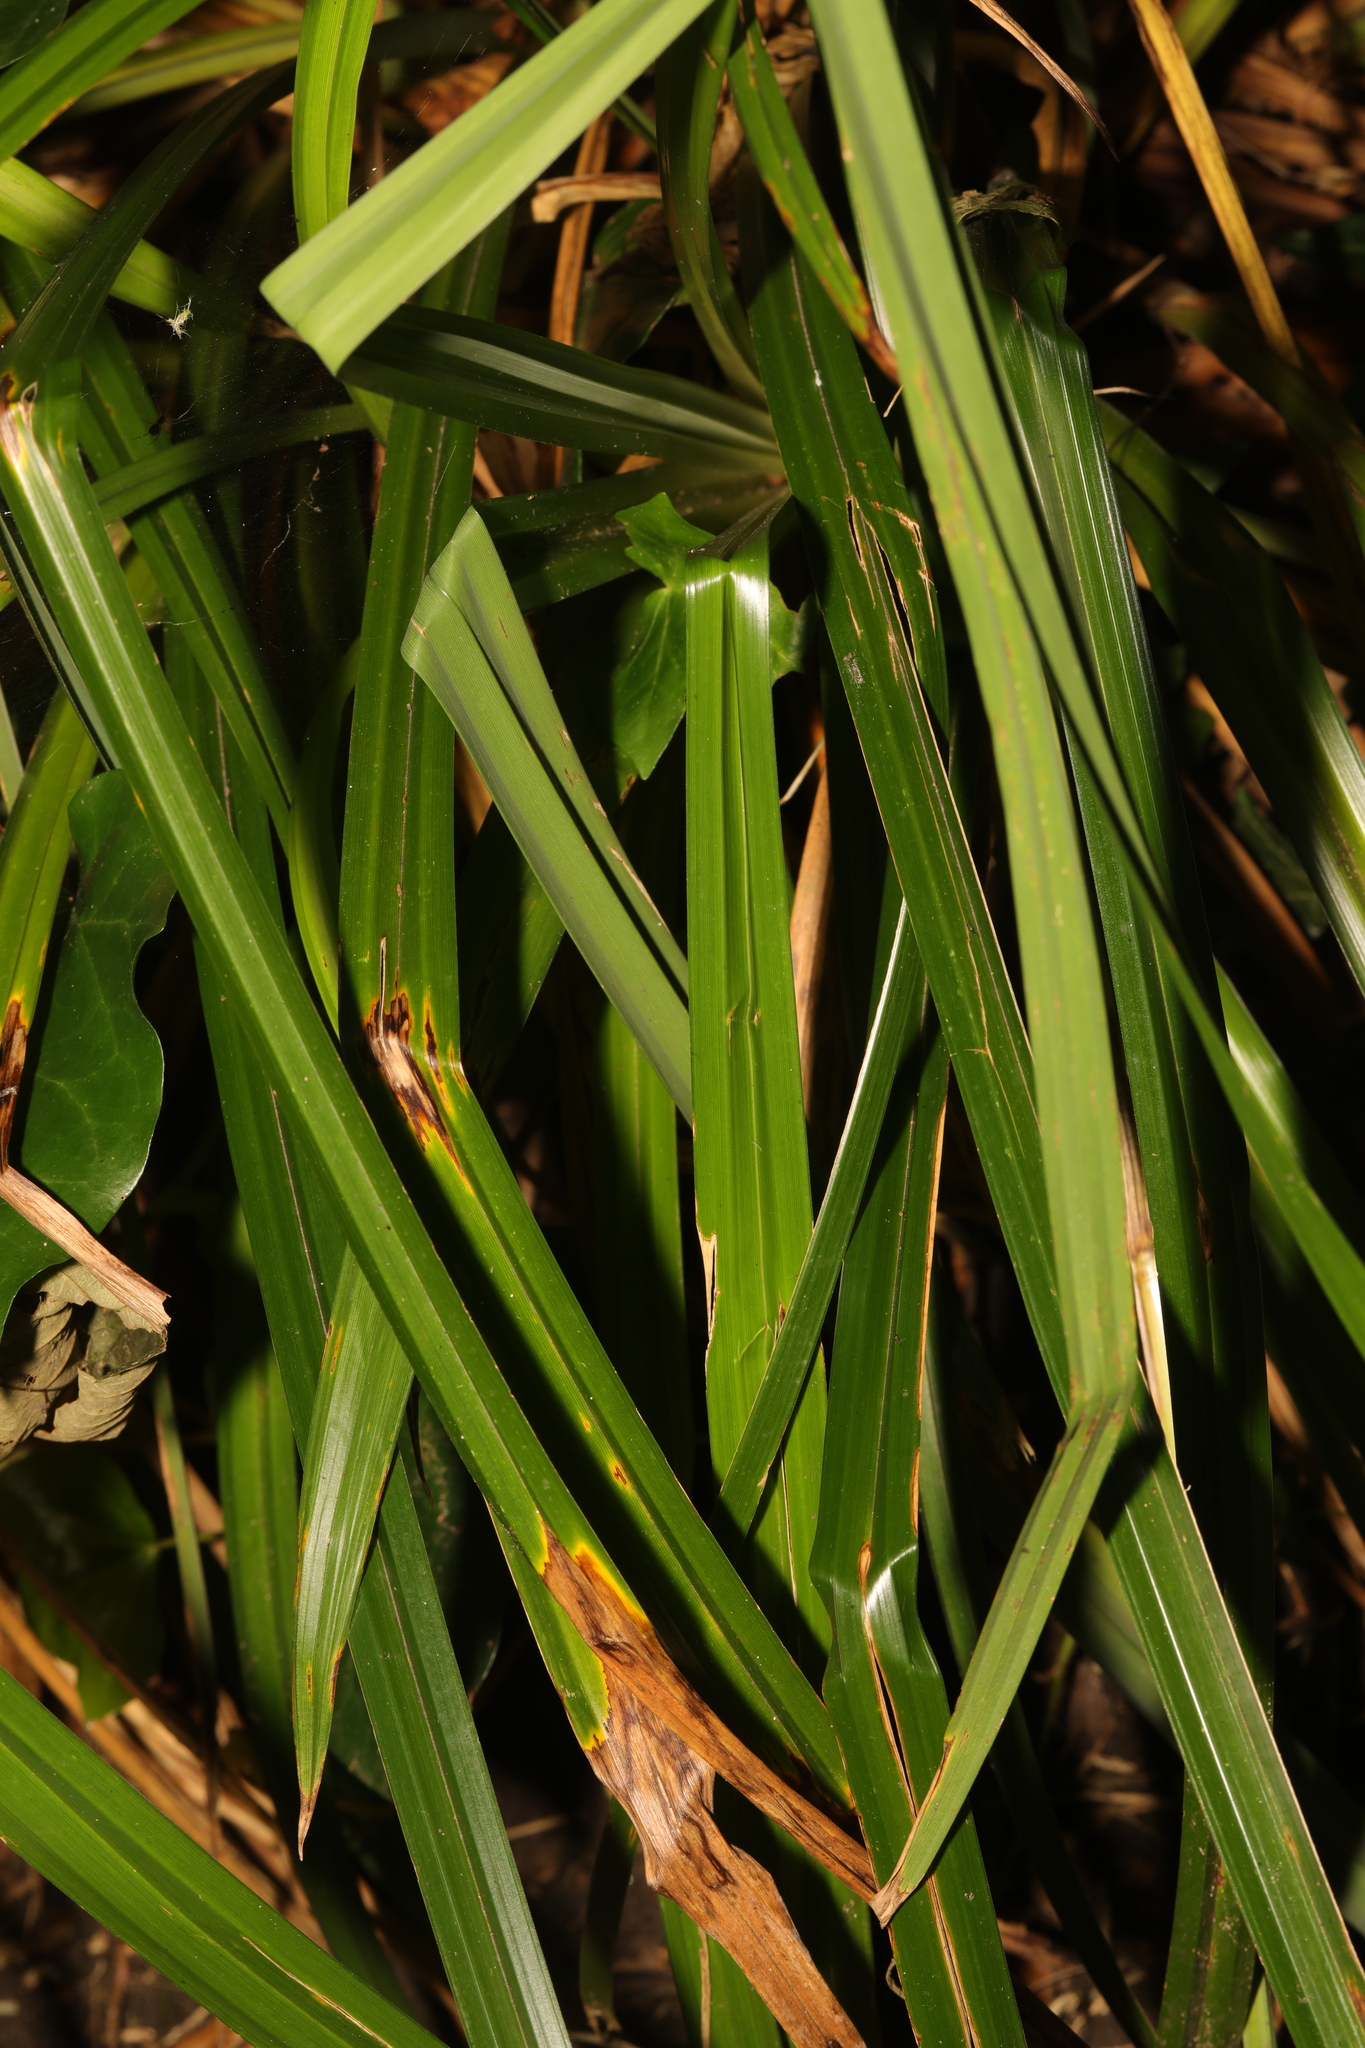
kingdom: Plantae
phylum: Tracheophyta
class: Liliopsida
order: Poales
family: Cyperaceae
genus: Carex
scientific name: Carex pendula
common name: Pendulous sedge
